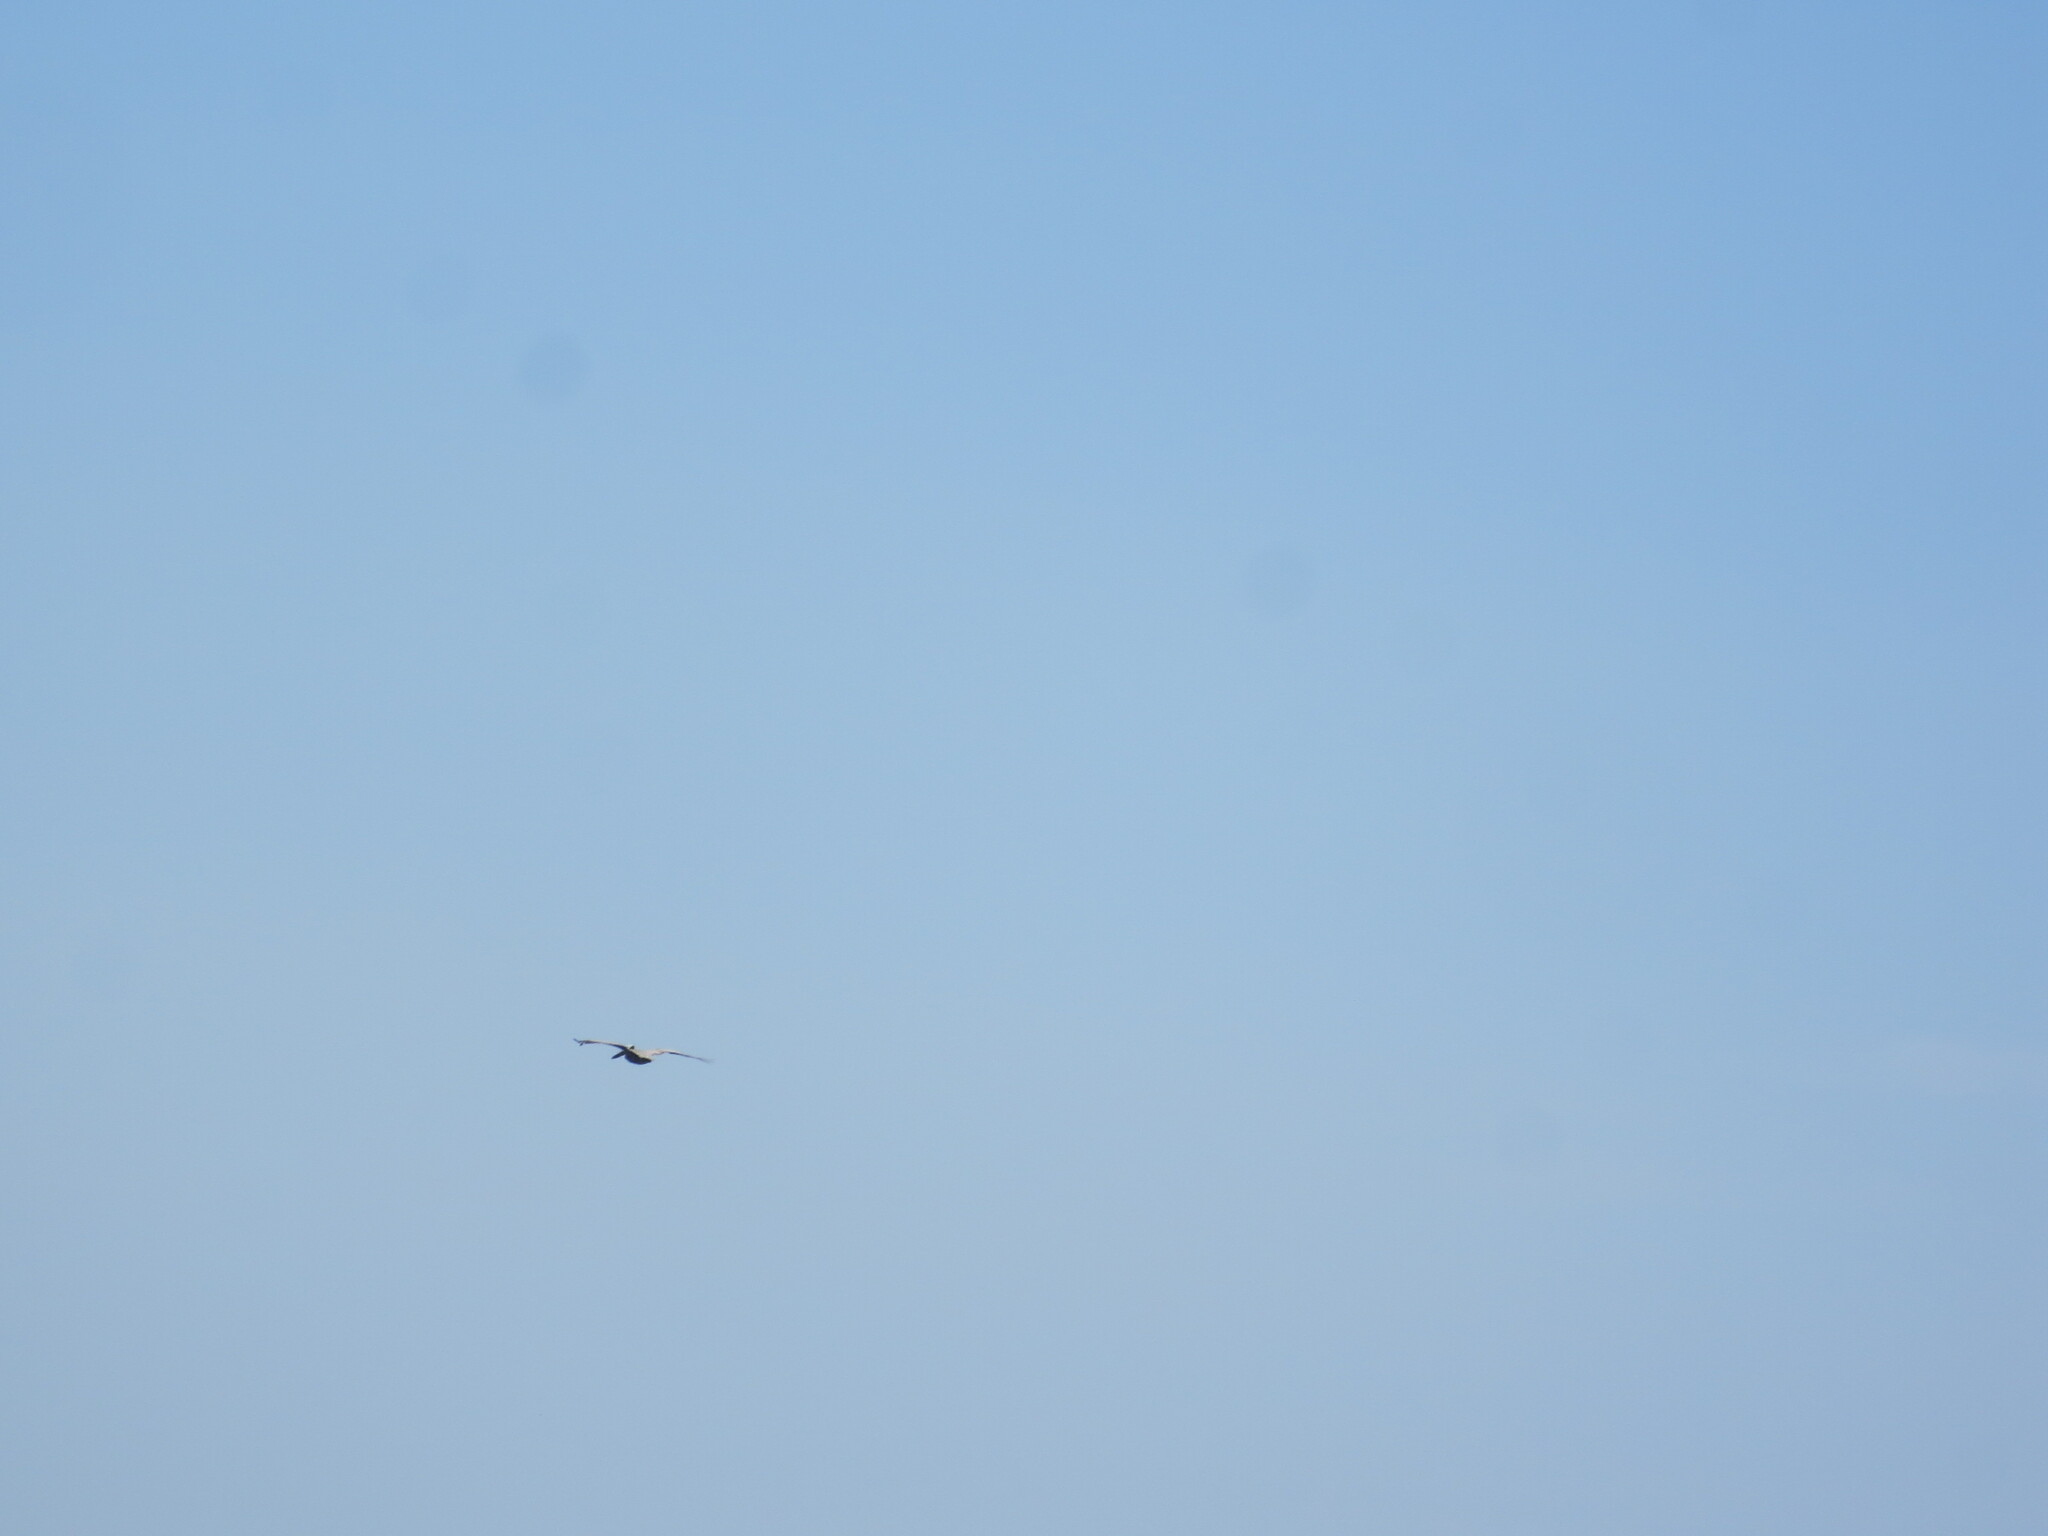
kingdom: Animalia
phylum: Chordata
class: Aves
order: Pelecaniformes
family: Pelecanidae
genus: Pelecanus
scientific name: Pelecanus occidentalis
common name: Brown pelican
